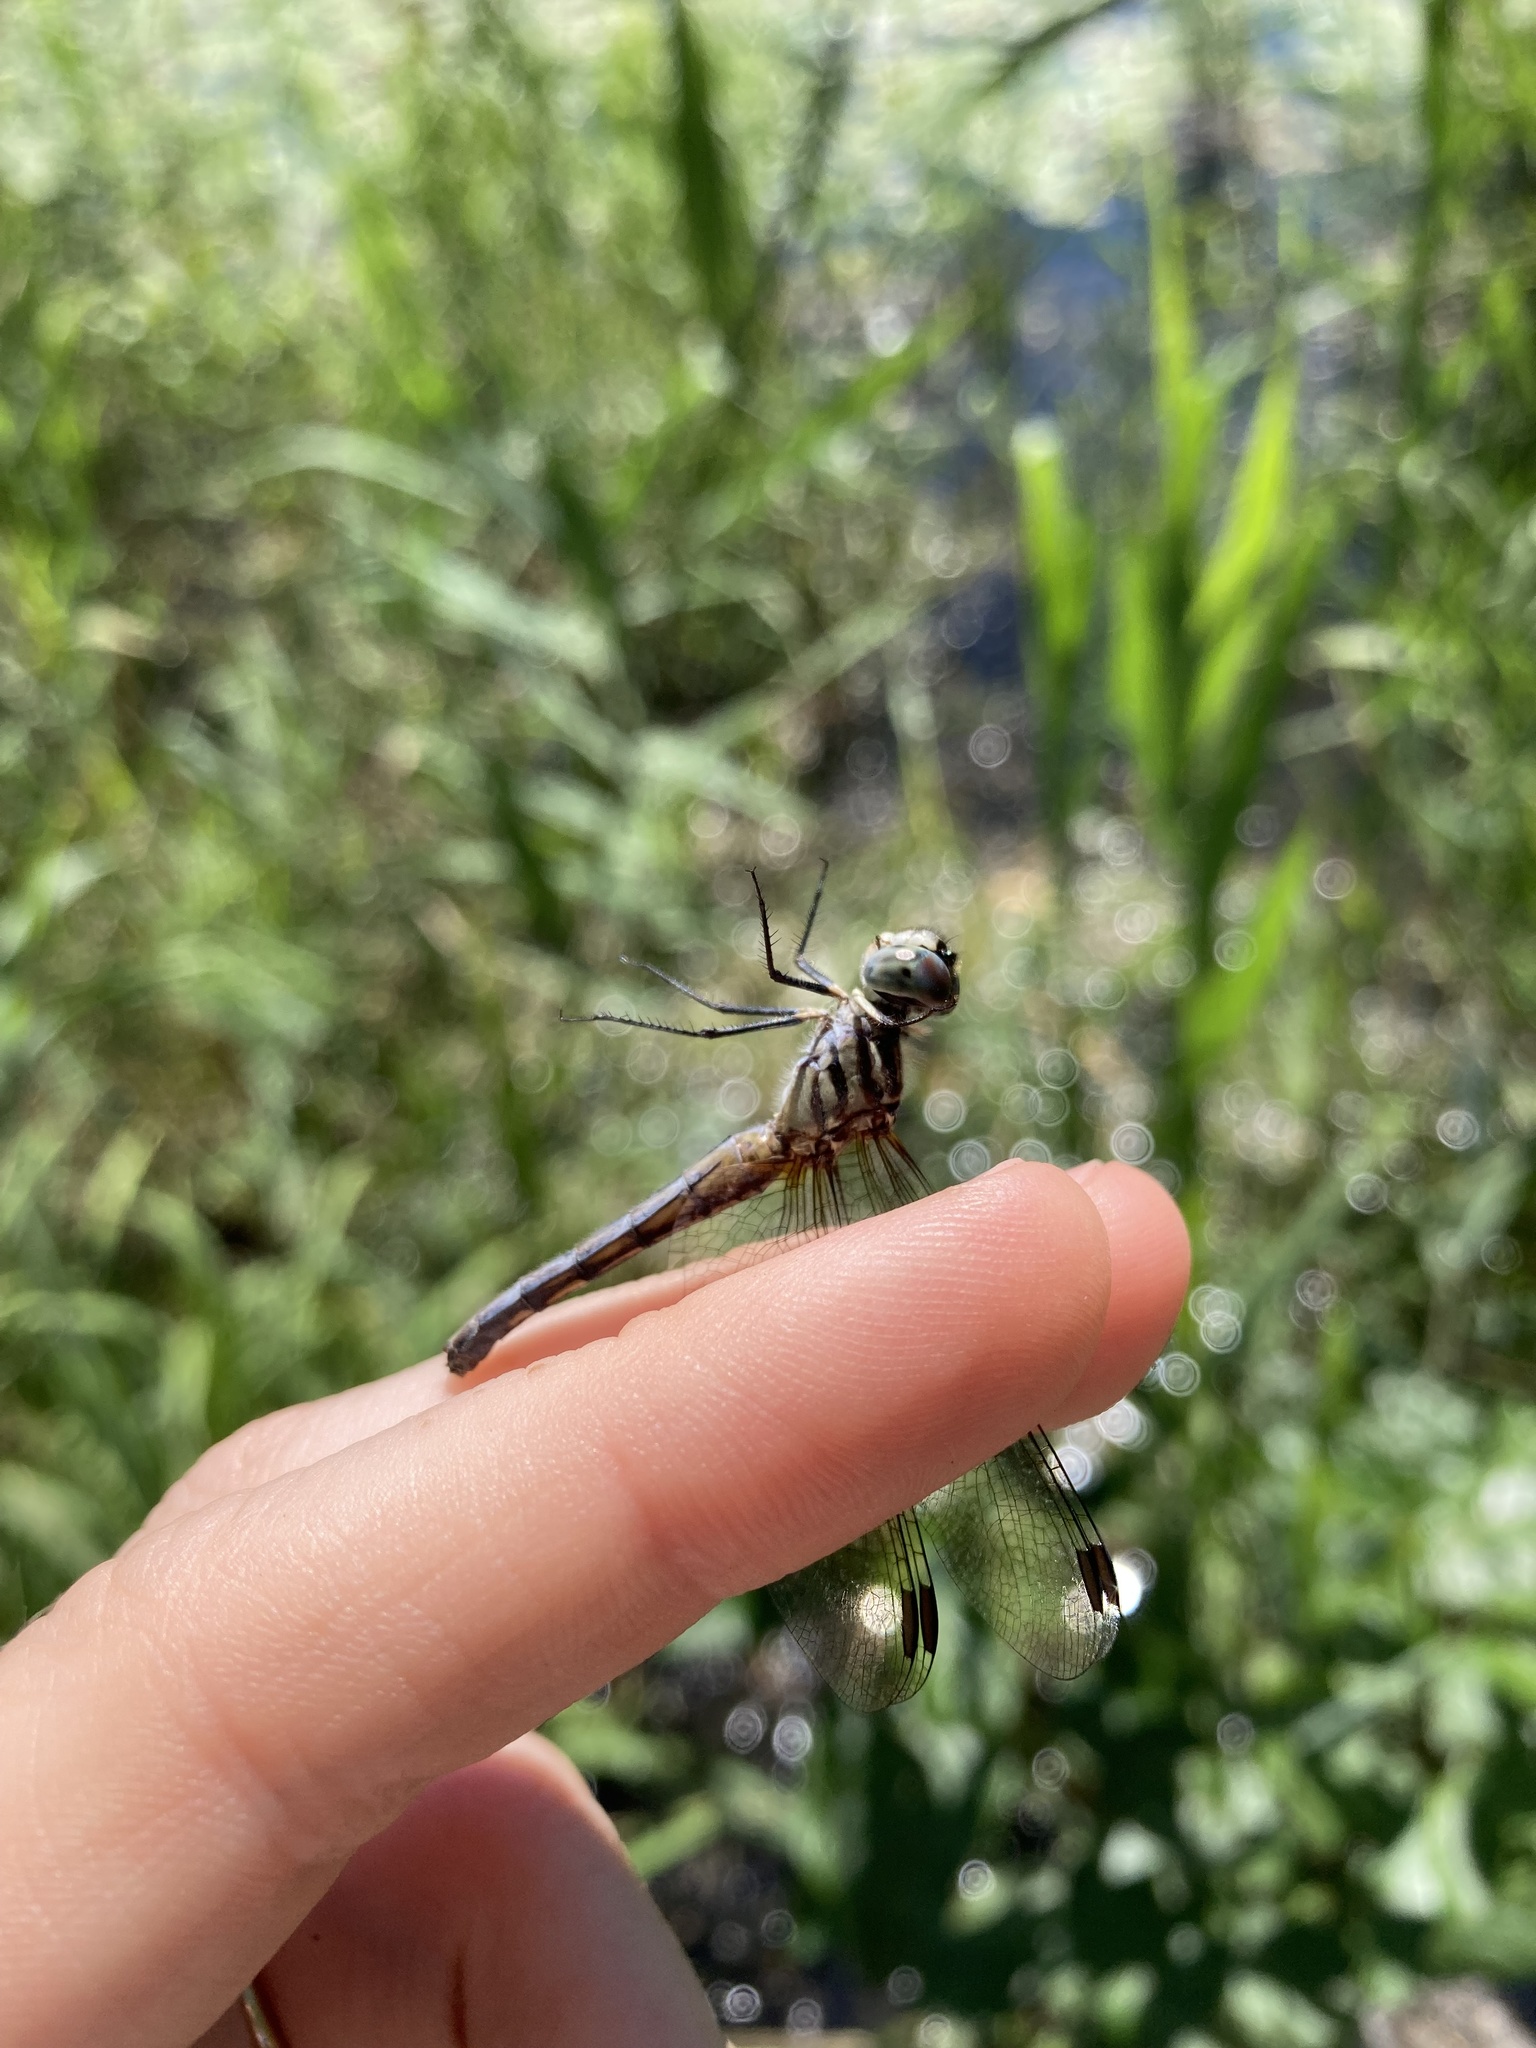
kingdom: Animalia
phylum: Arthropoda
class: Insecta
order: Odonata
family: Libellulidae
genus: Pachydiplax
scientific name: Pachydiplax longipennis
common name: Blue dasher
